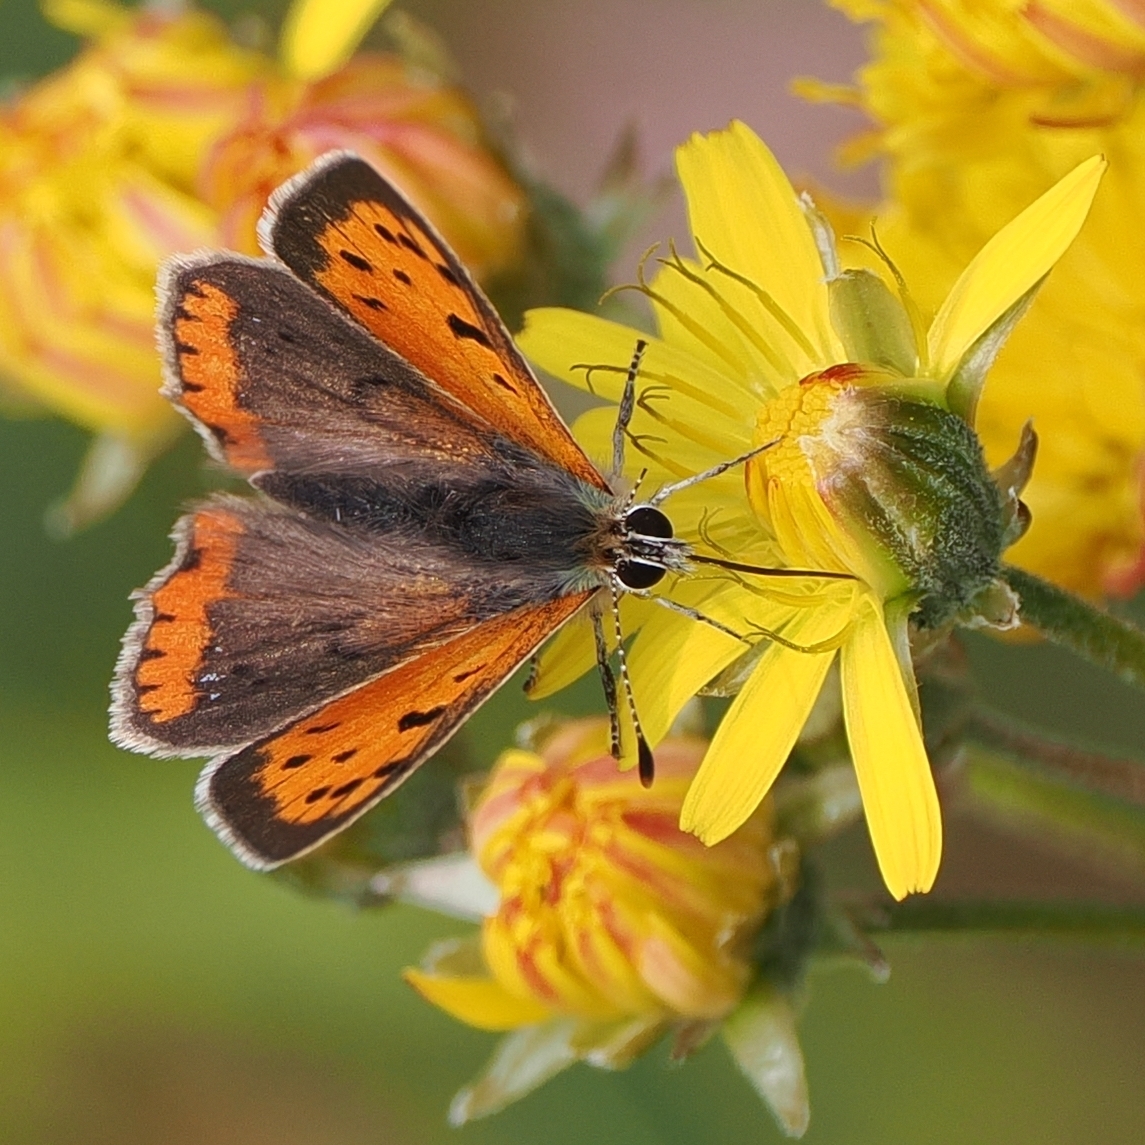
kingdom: Animalia
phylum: Arthropoda
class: Insecta
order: Lepidoptera
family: Lycaenidae
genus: Lycaena
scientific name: Lycaena phlaeas
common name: Small copper
